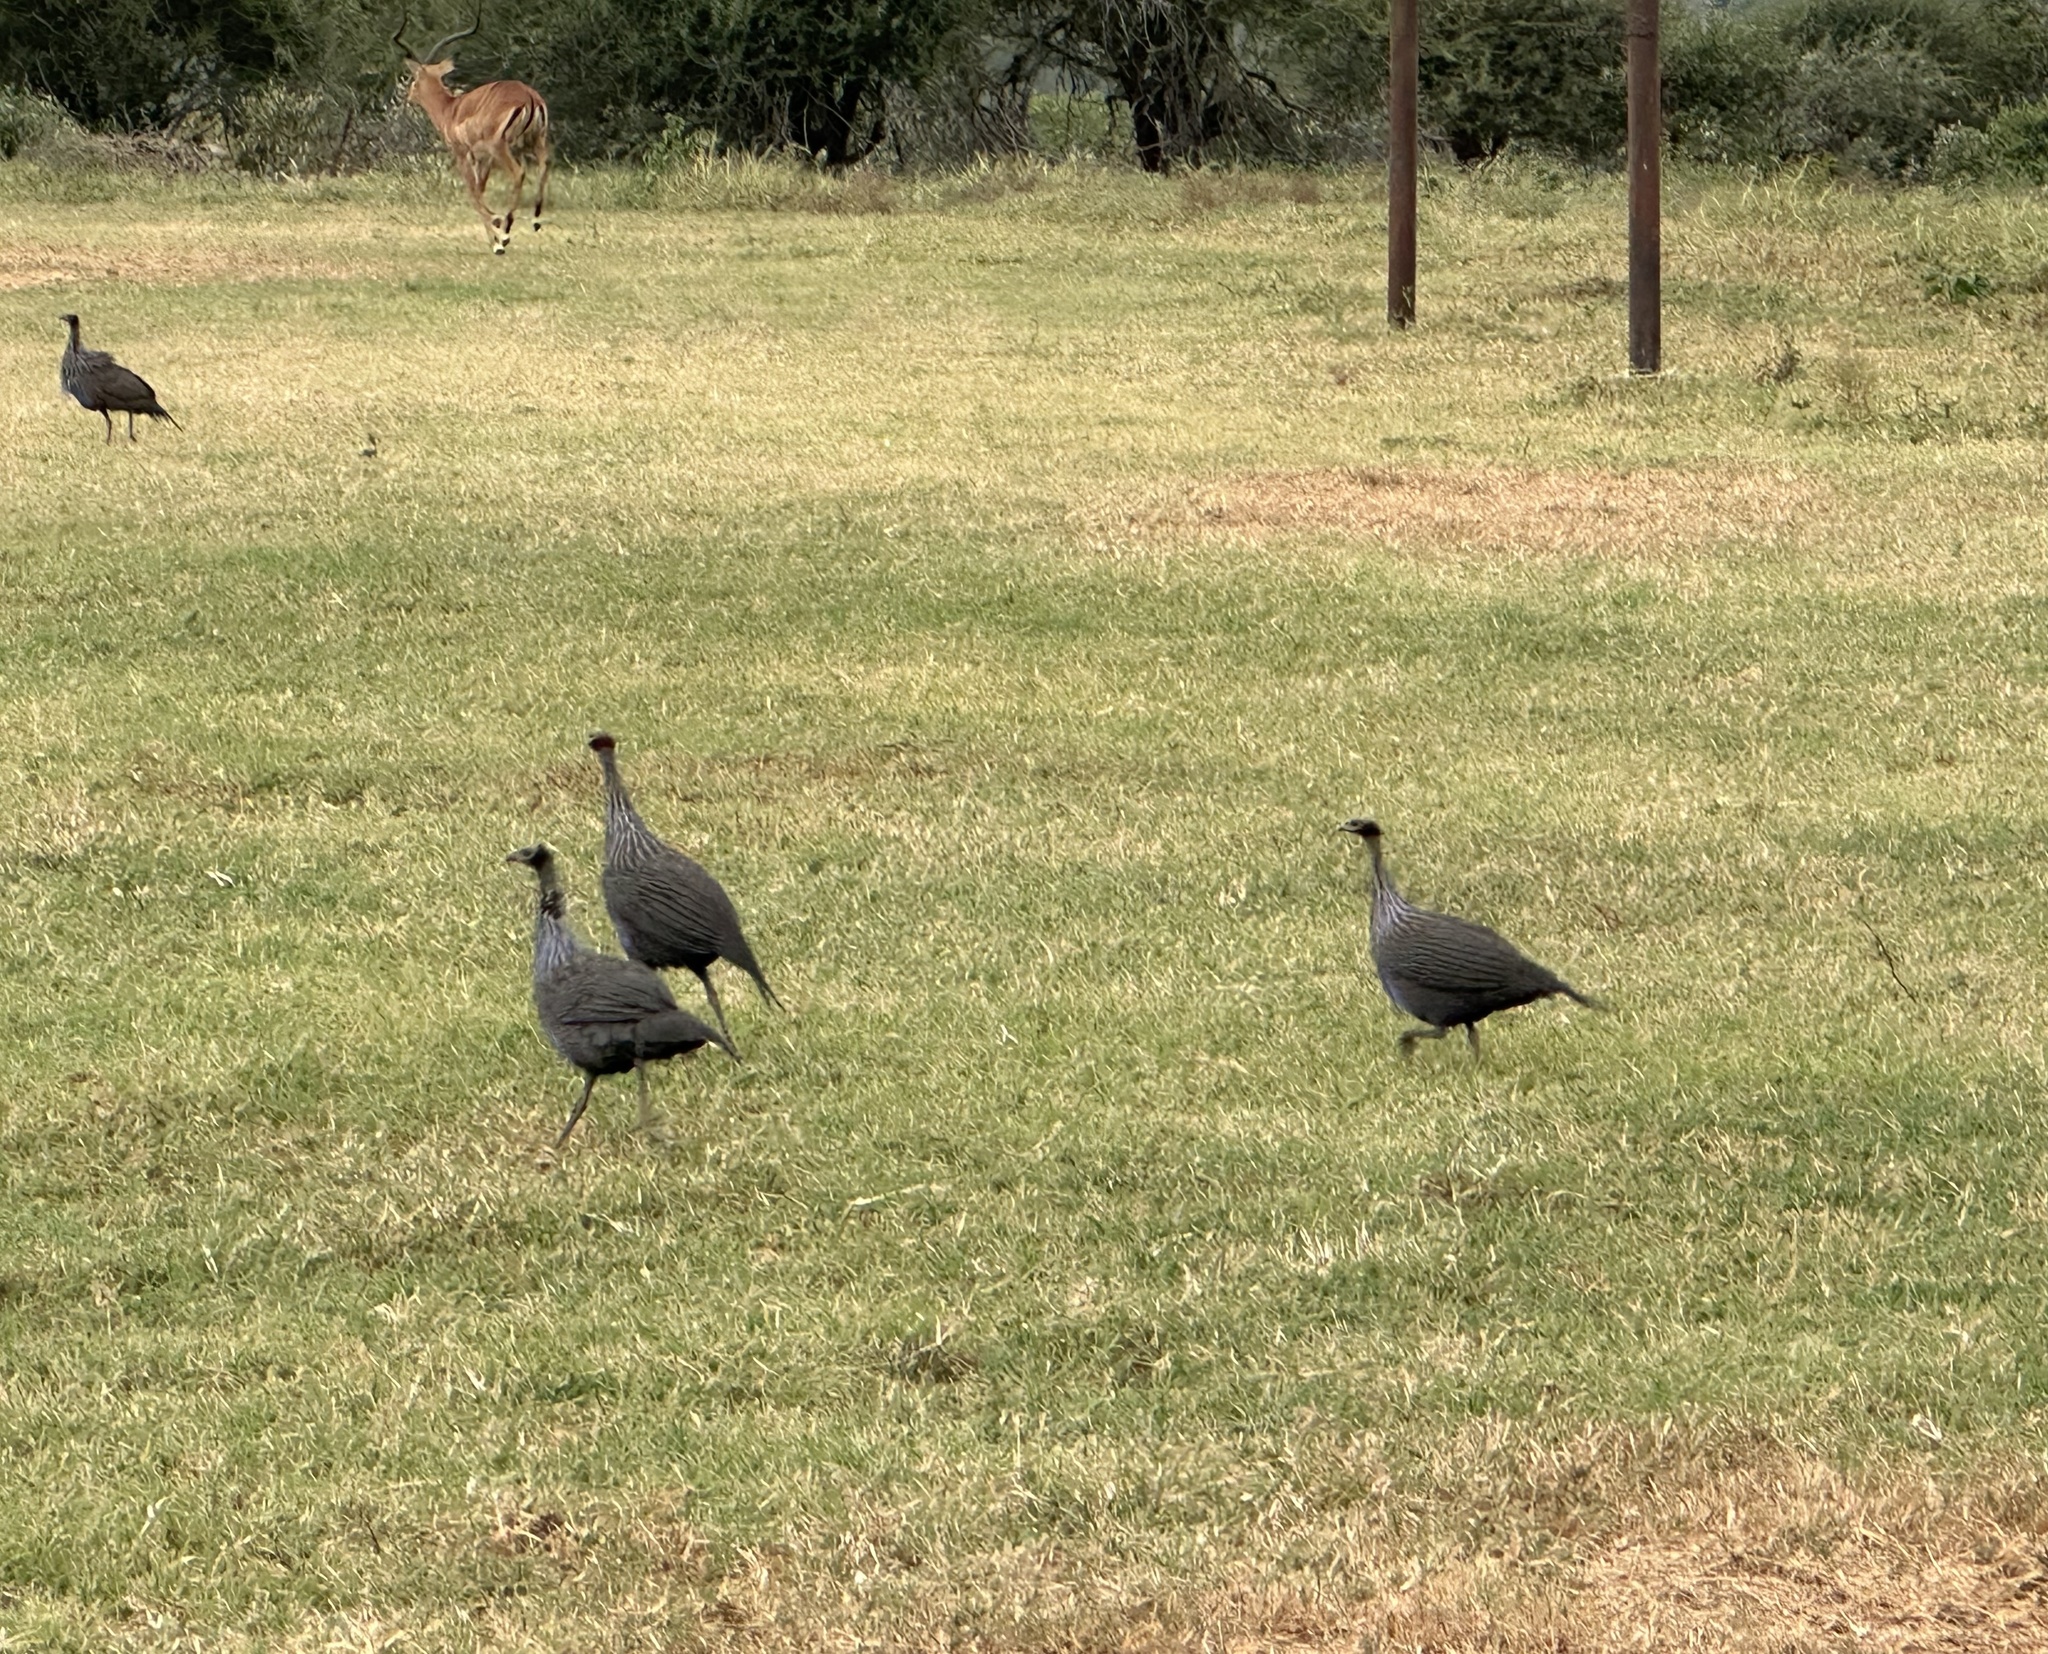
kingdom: Animalia
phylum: Chordata
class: Aves
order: Galliformes
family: Numididae
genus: Acryllium
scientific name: Acryllium vulturinum
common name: Vulturine guineafowl
